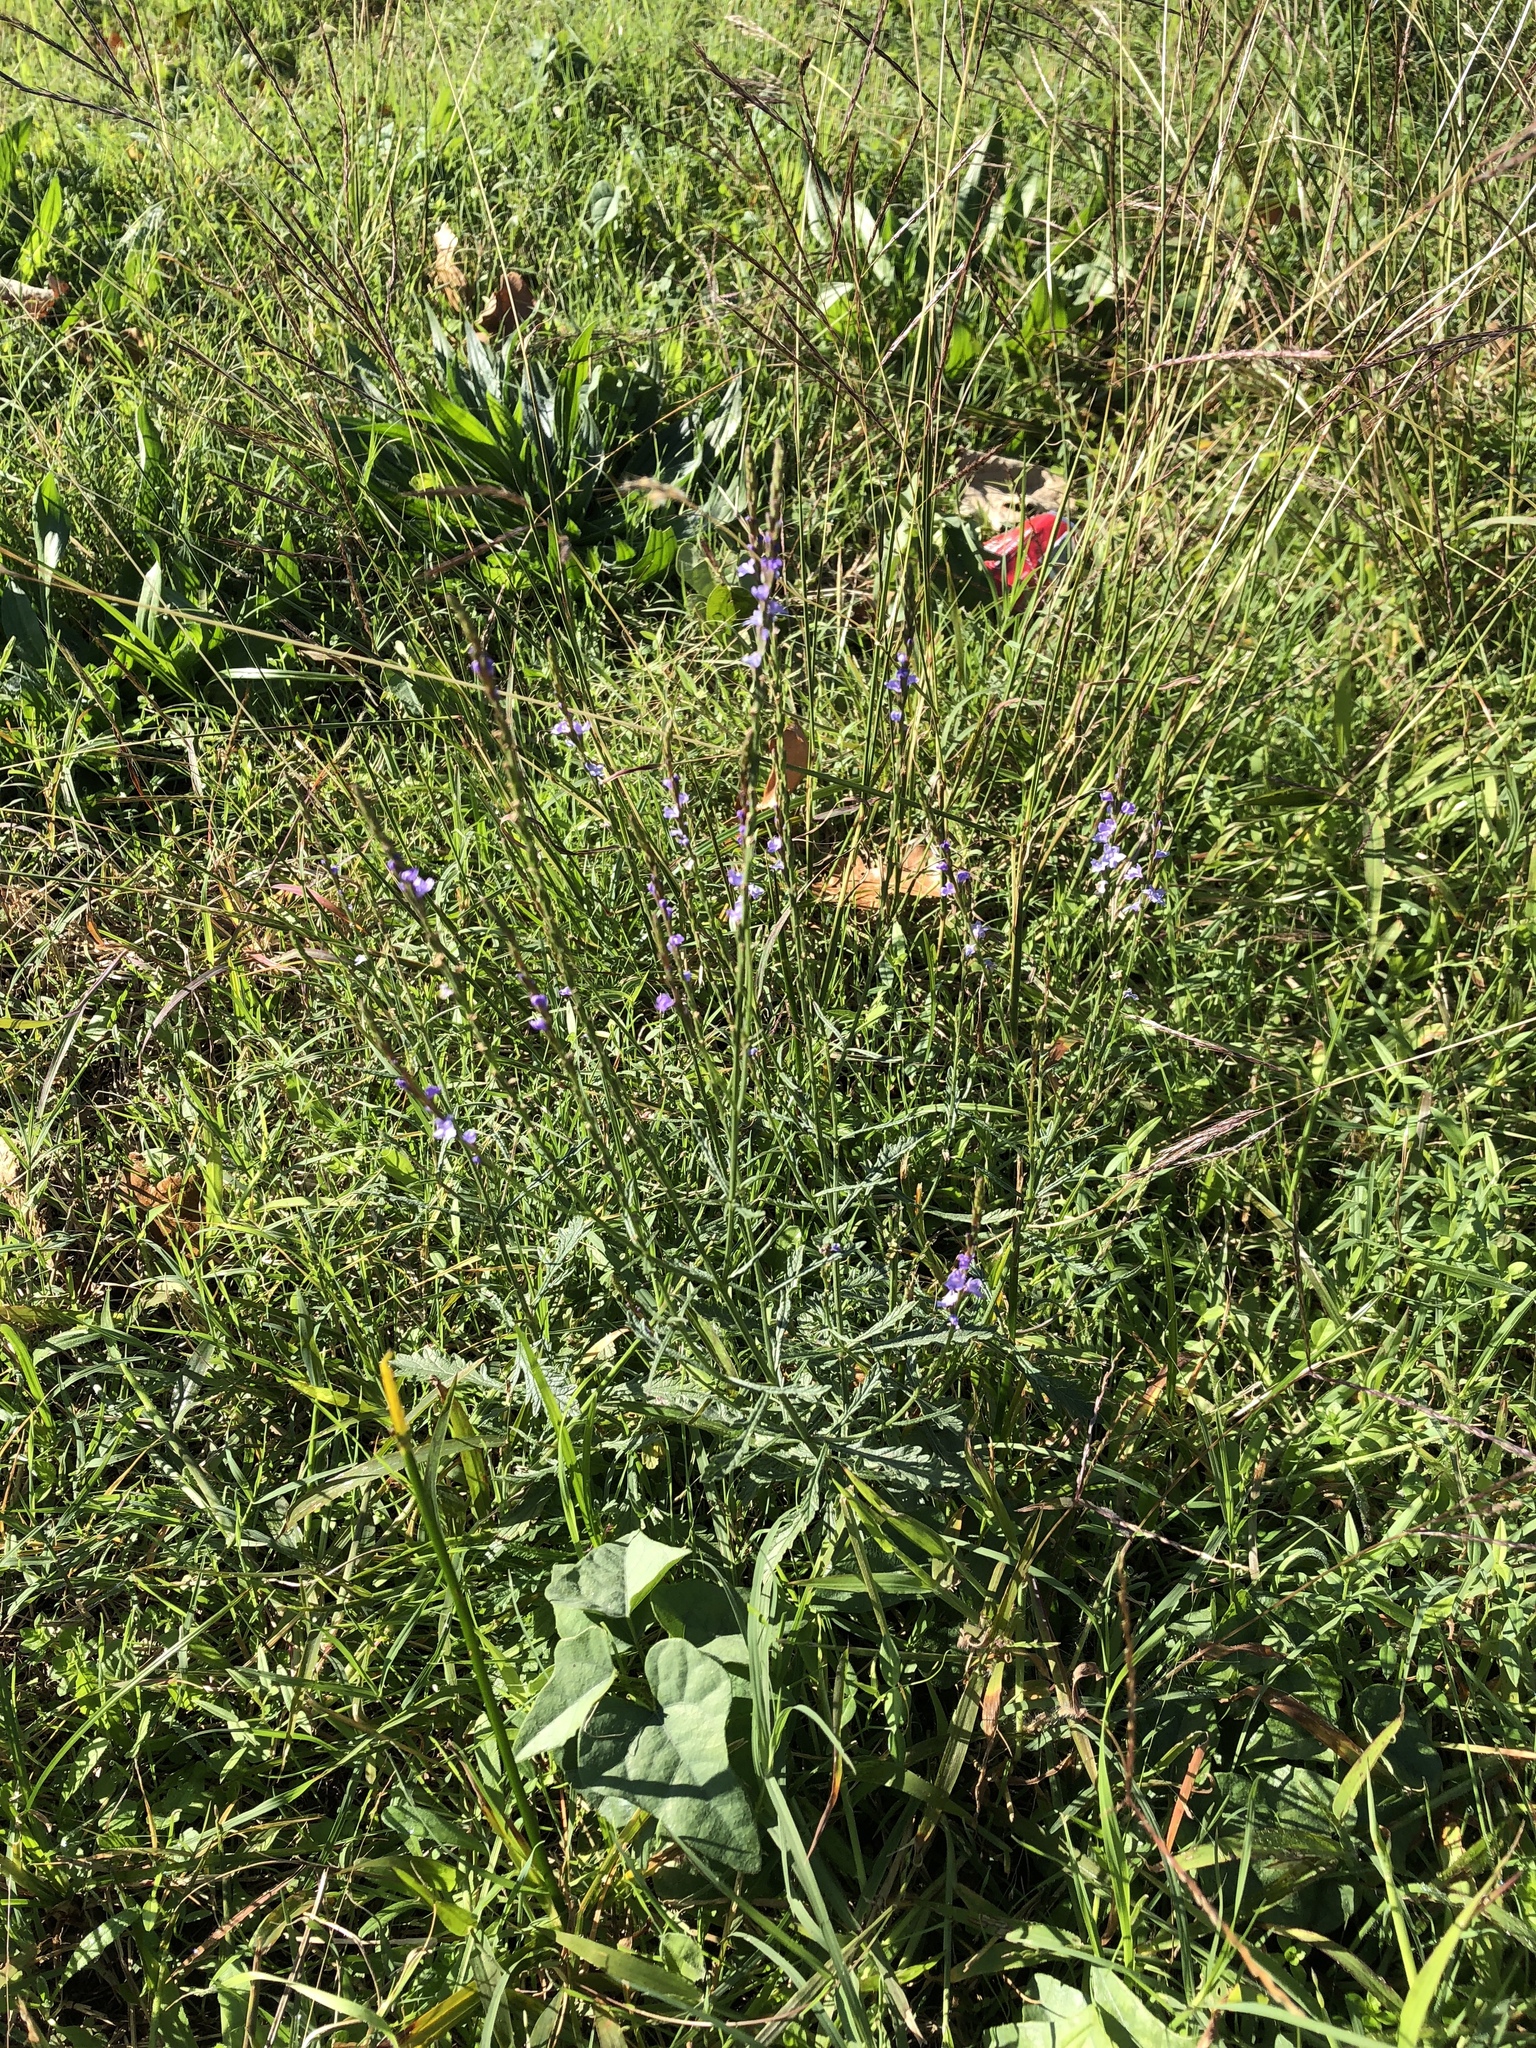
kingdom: Plantae
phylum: Tracheophyta
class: Magnoliopsida
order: Lamiales
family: Verbenaceae
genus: Verbena
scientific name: Verbena halei
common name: Texas vervain
